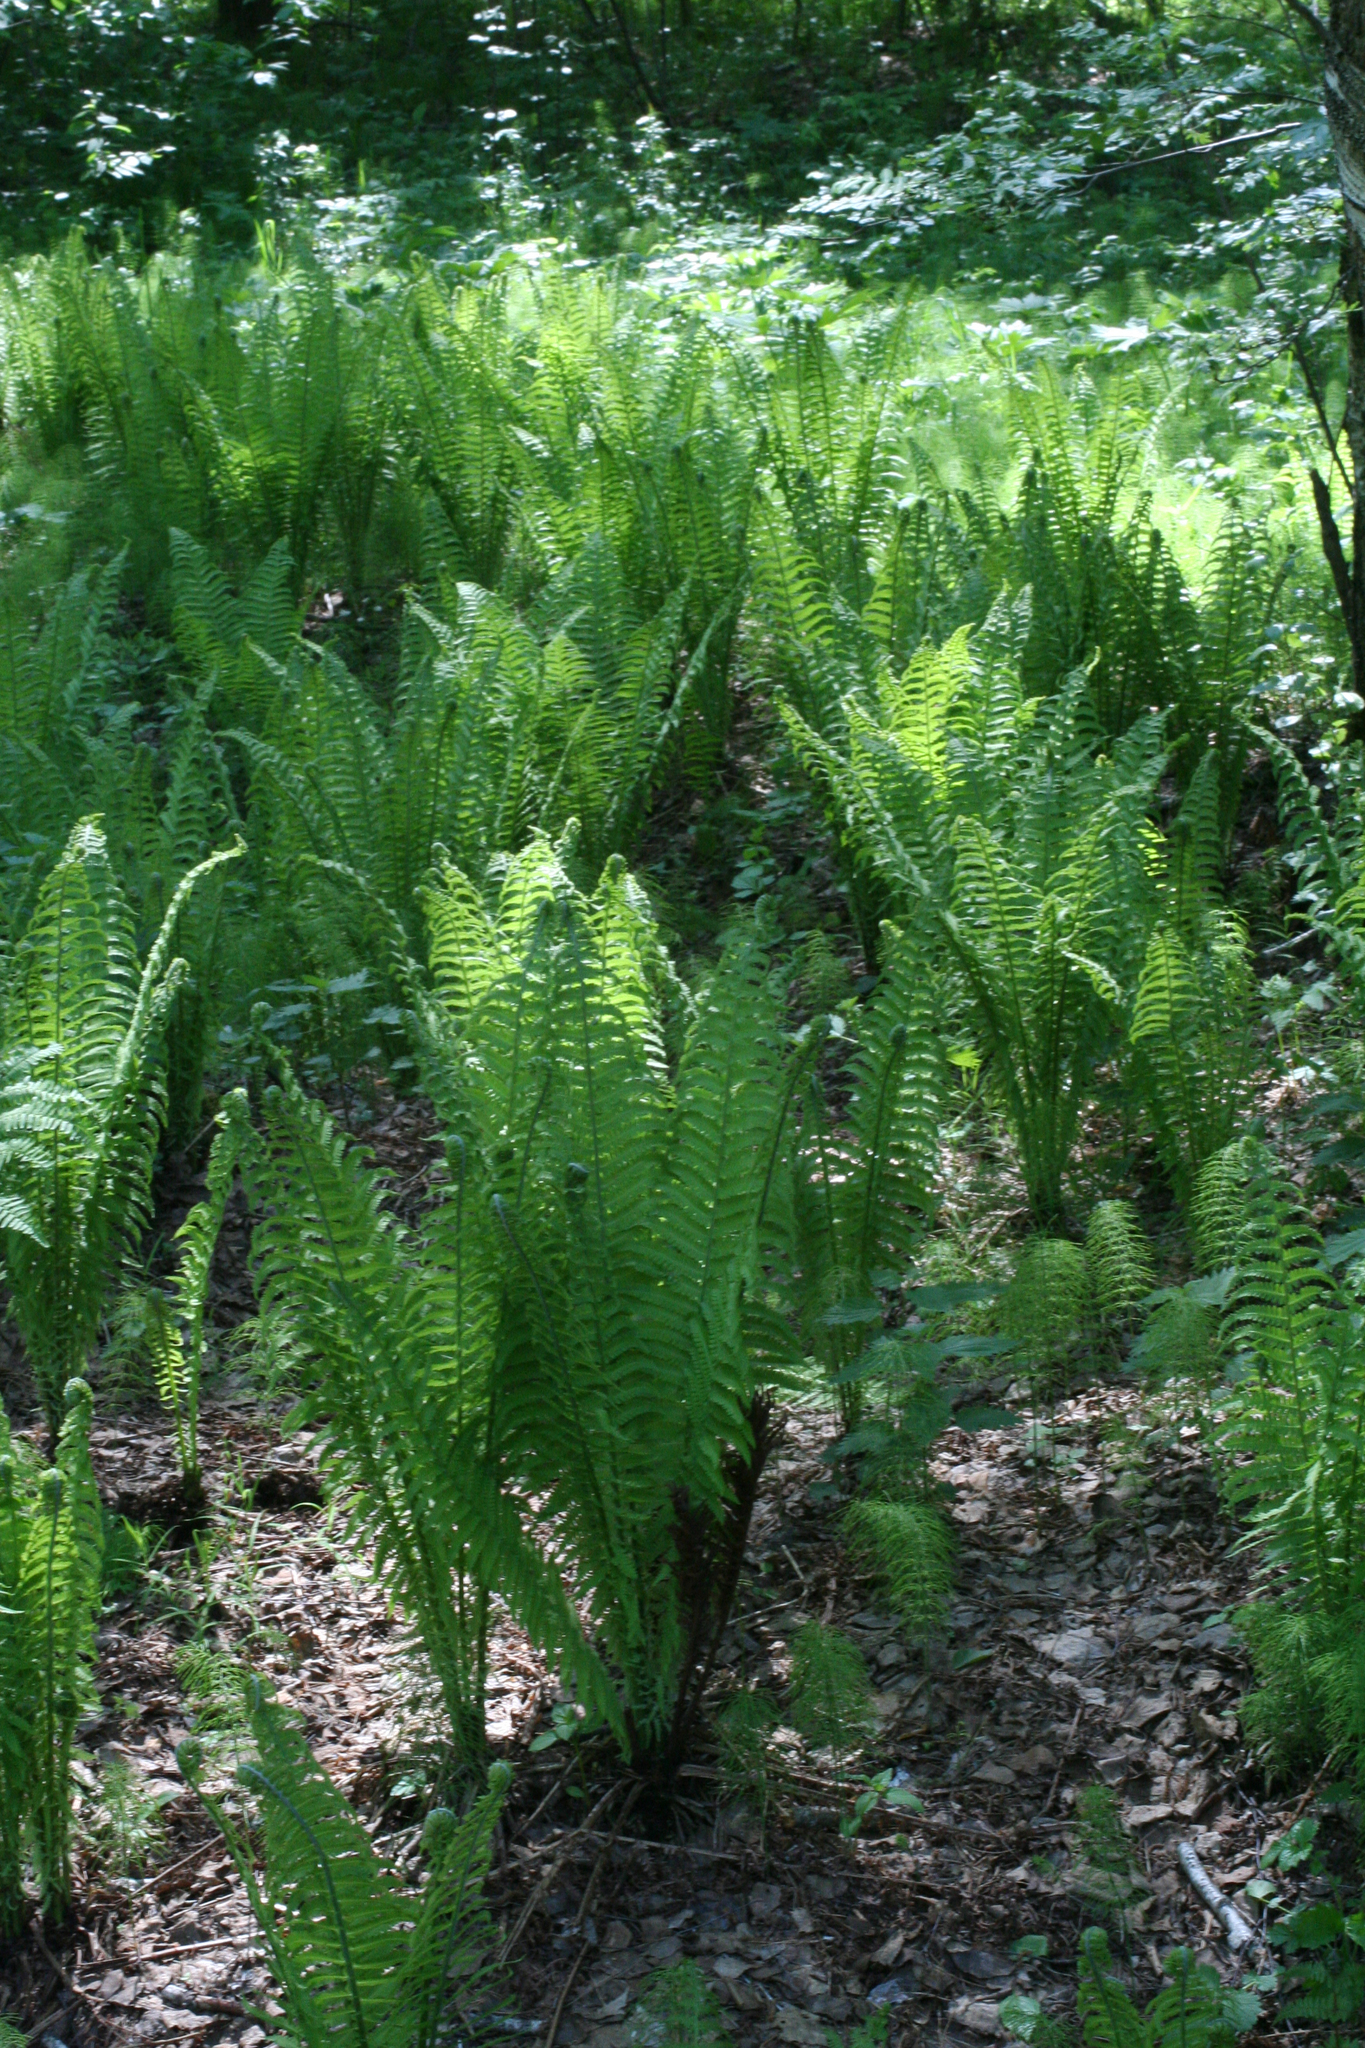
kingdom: Plantae
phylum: Tracheophyta
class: Polypodiopsida
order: Polypodiales
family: Onocleaceae
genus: Matteuccia
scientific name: Matteuccia struthiopteris
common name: Ostrich fern
